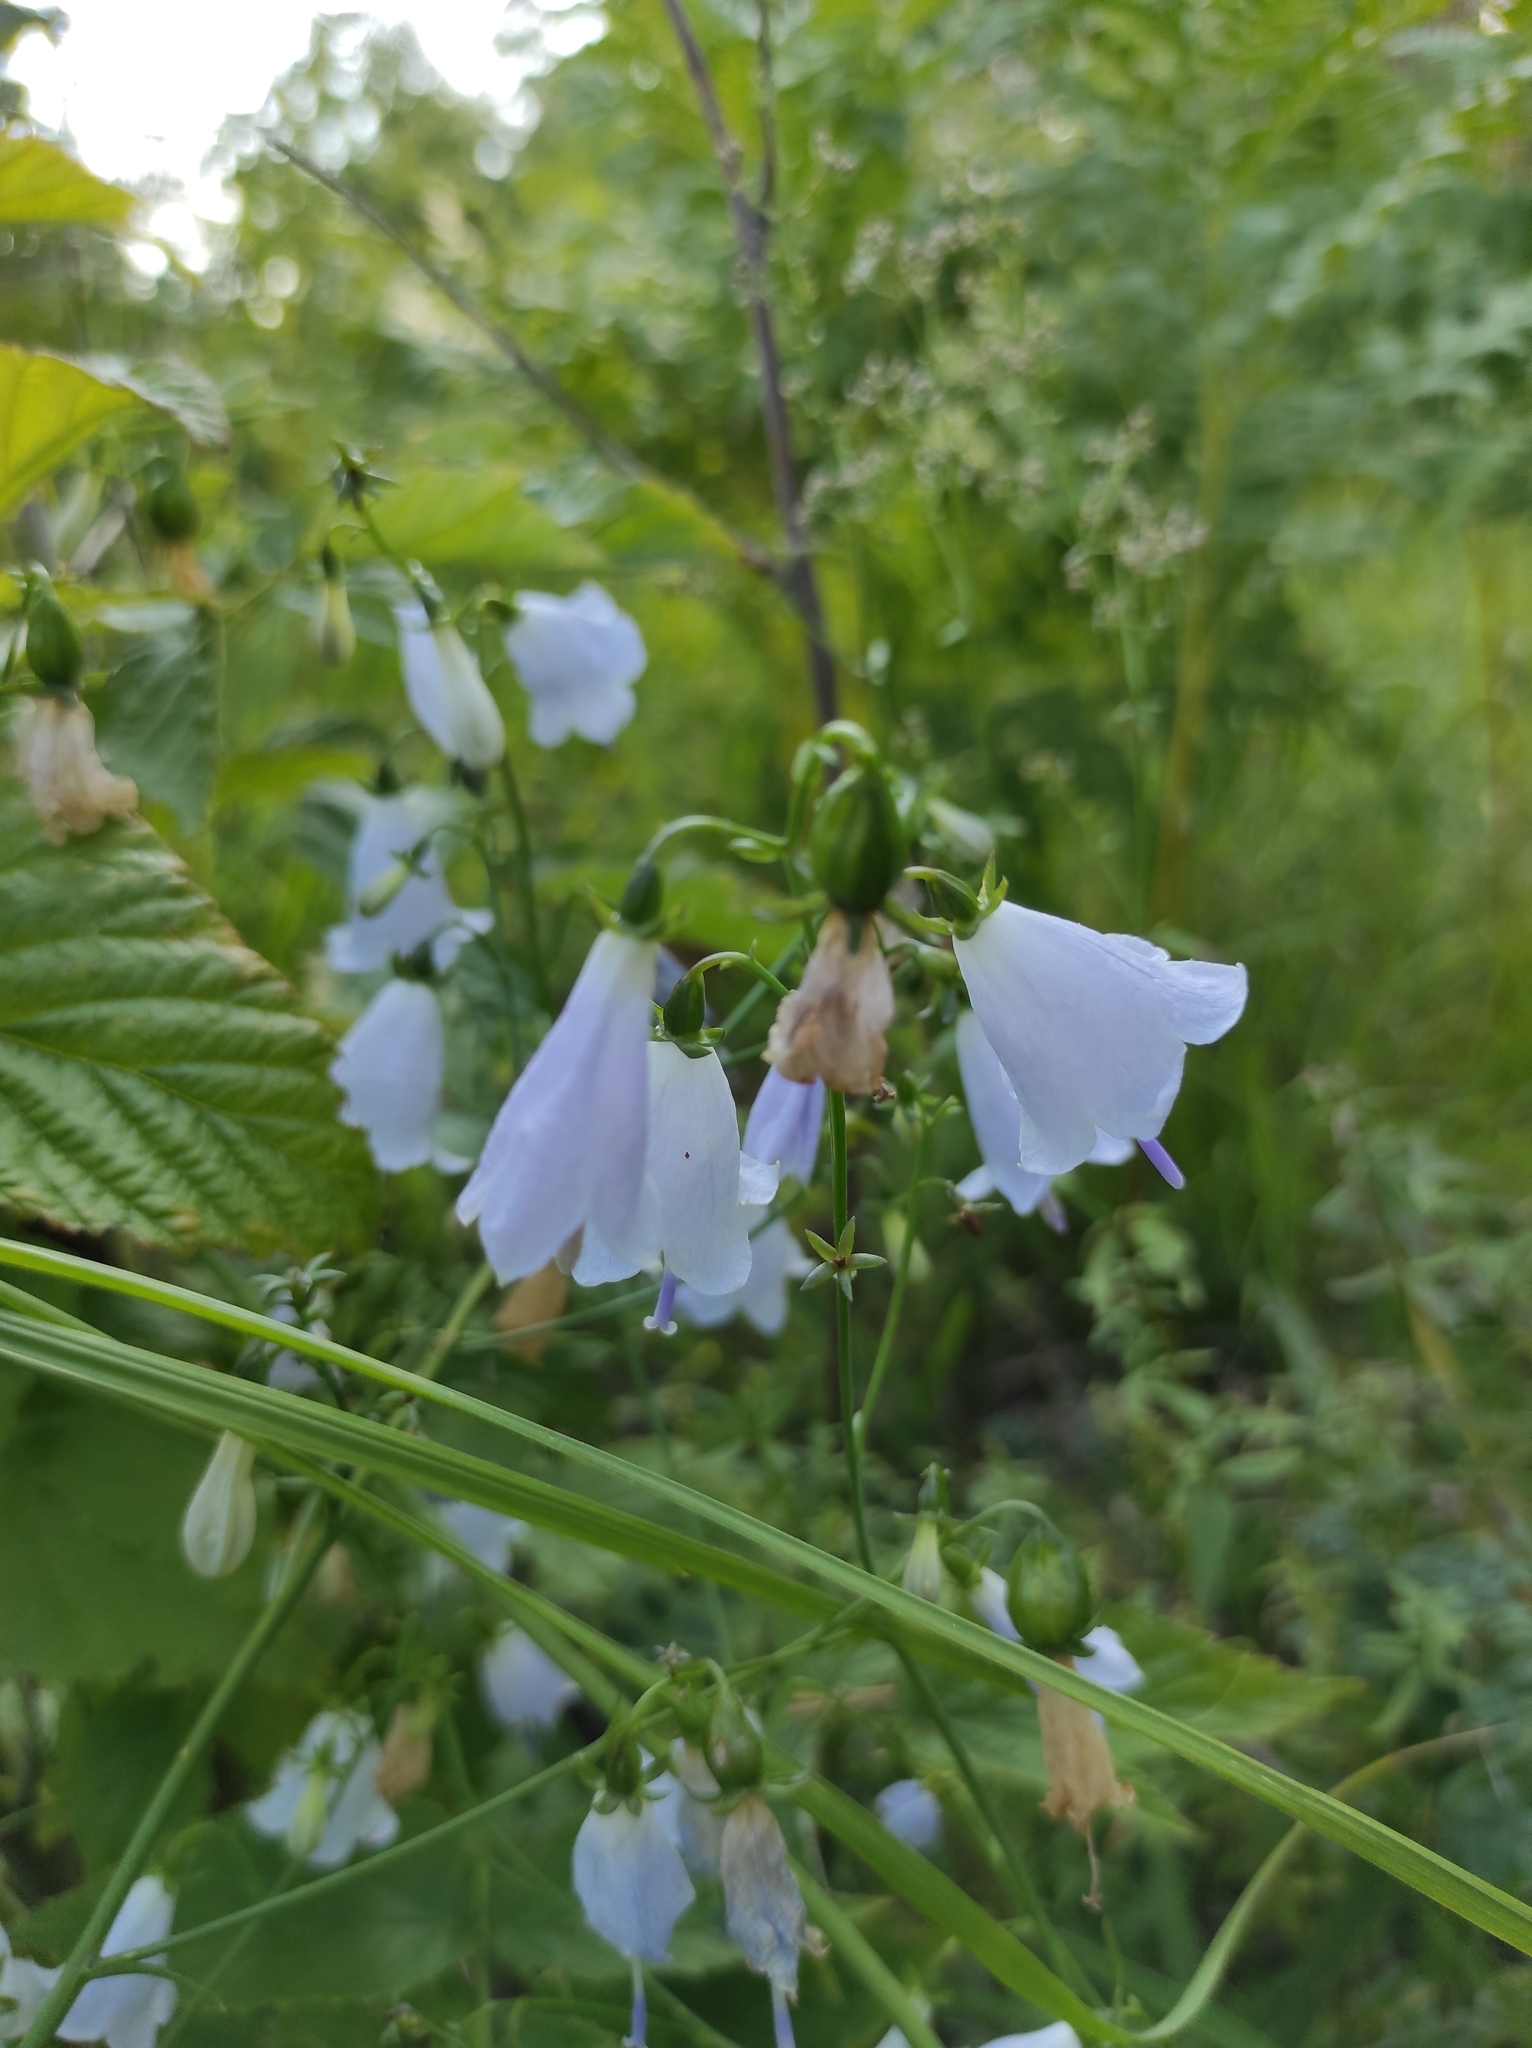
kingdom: Plantae
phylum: Tracheophyta
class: Magnoliopsida
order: Asterales
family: Campanulaceae
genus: Adenophora
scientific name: Adenophora liliifolia
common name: Lilyleaf ladybells
